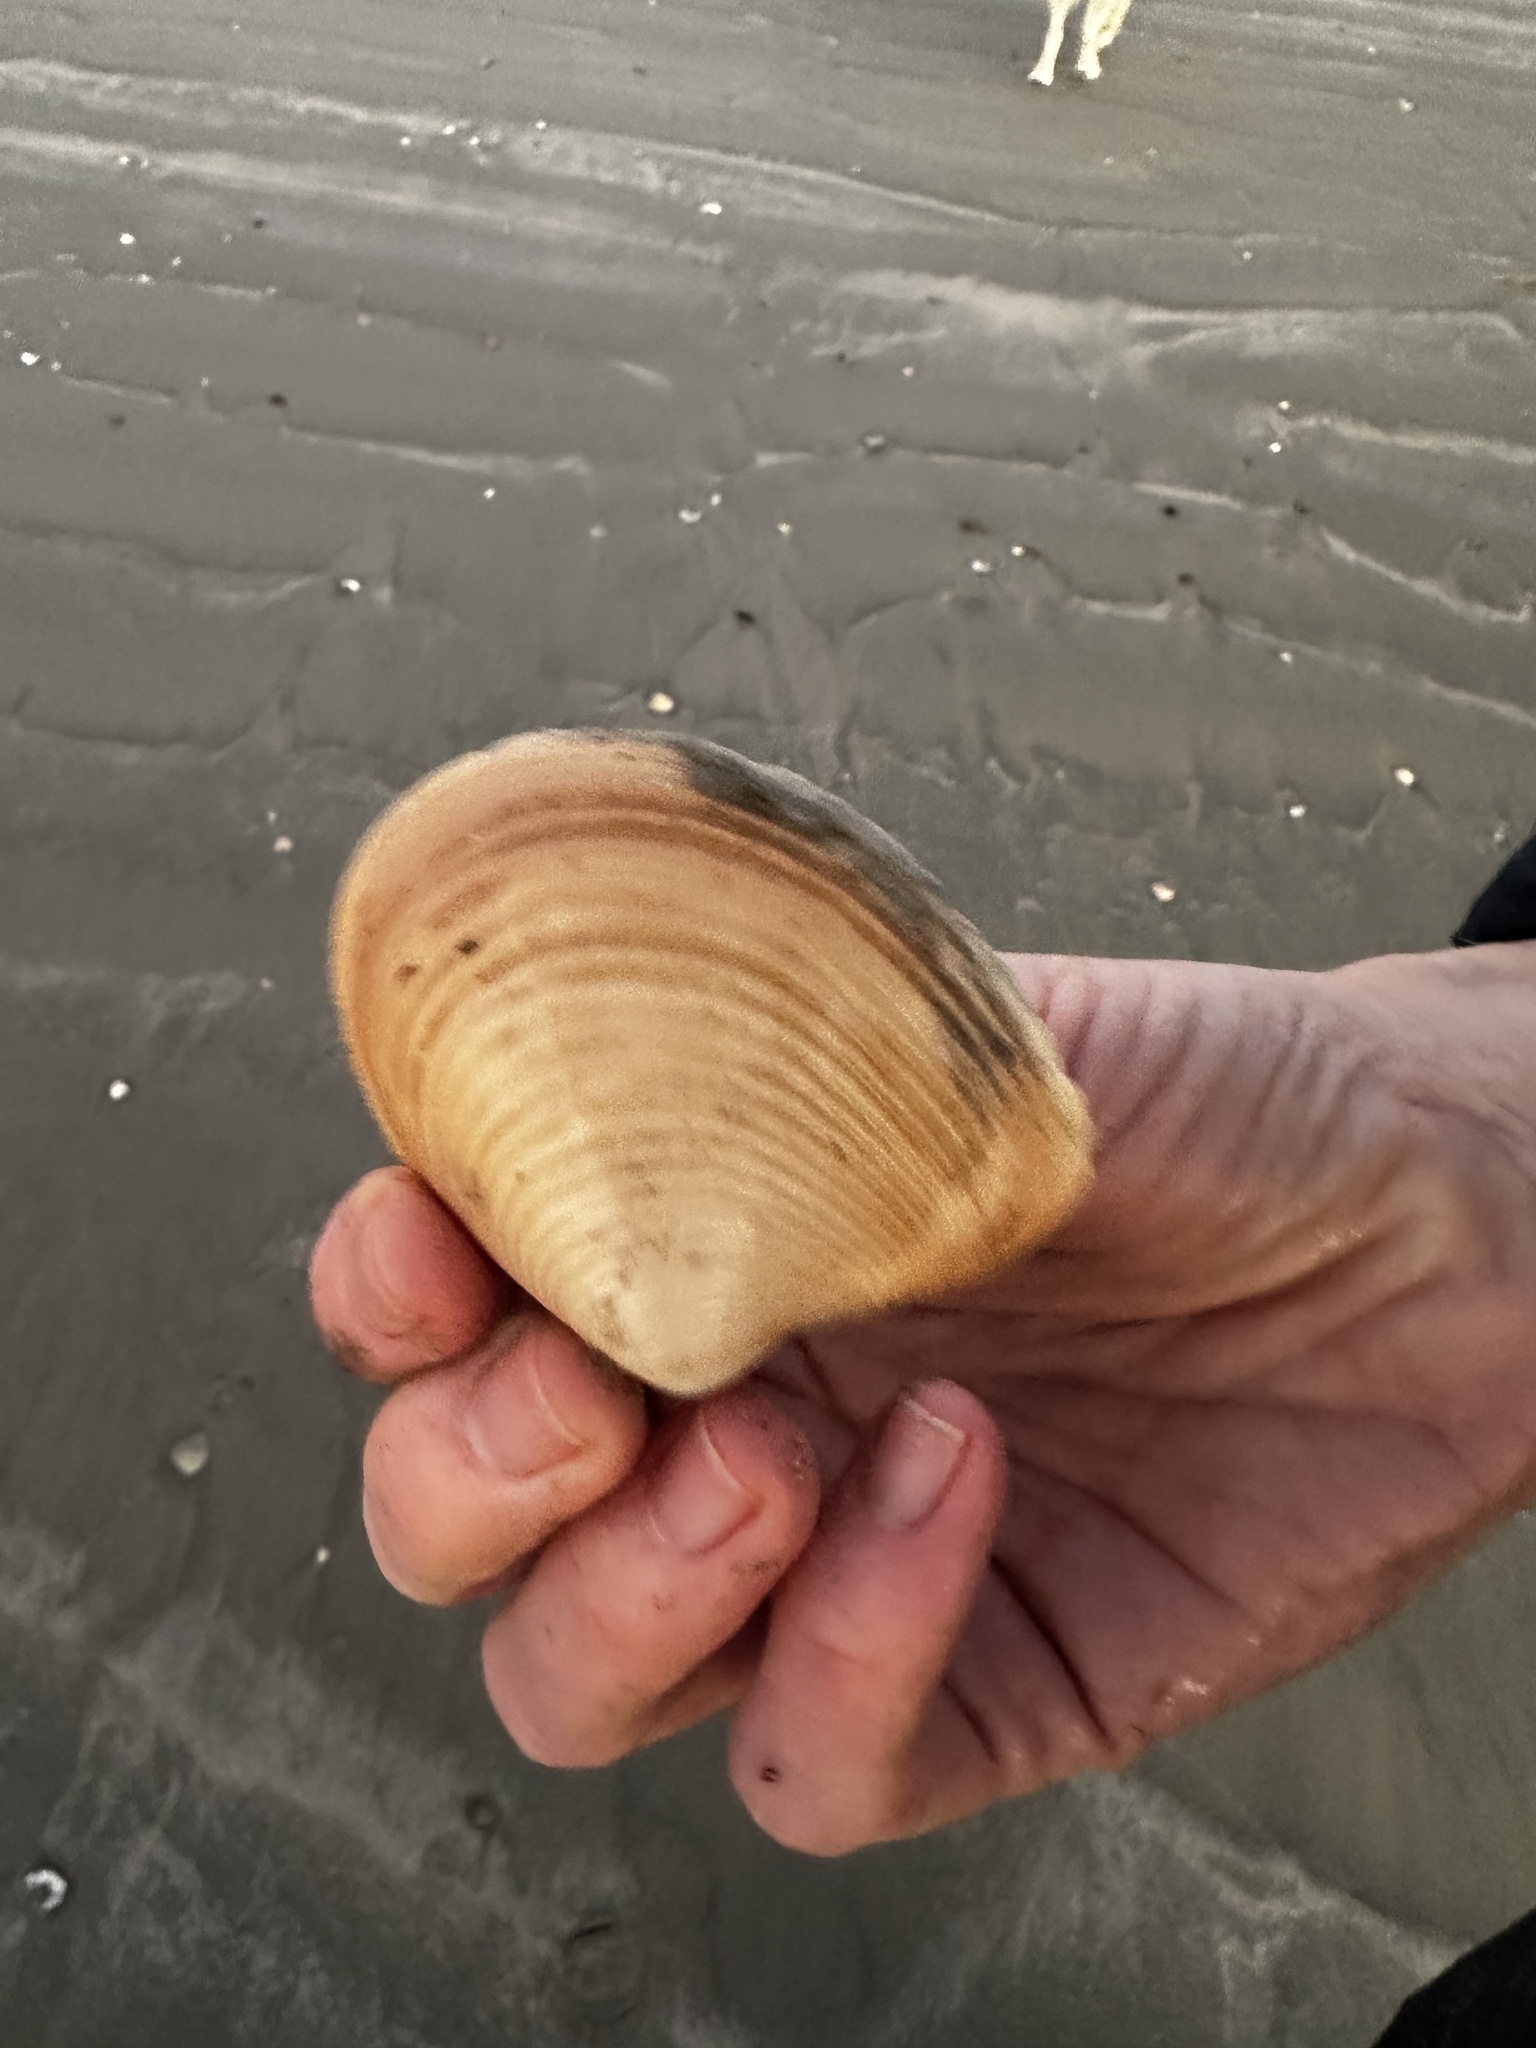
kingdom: Animalia
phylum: Mollusca
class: Bivalvia
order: Venerida
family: Anatinellidae
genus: Raeta
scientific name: Raeta plicatella
